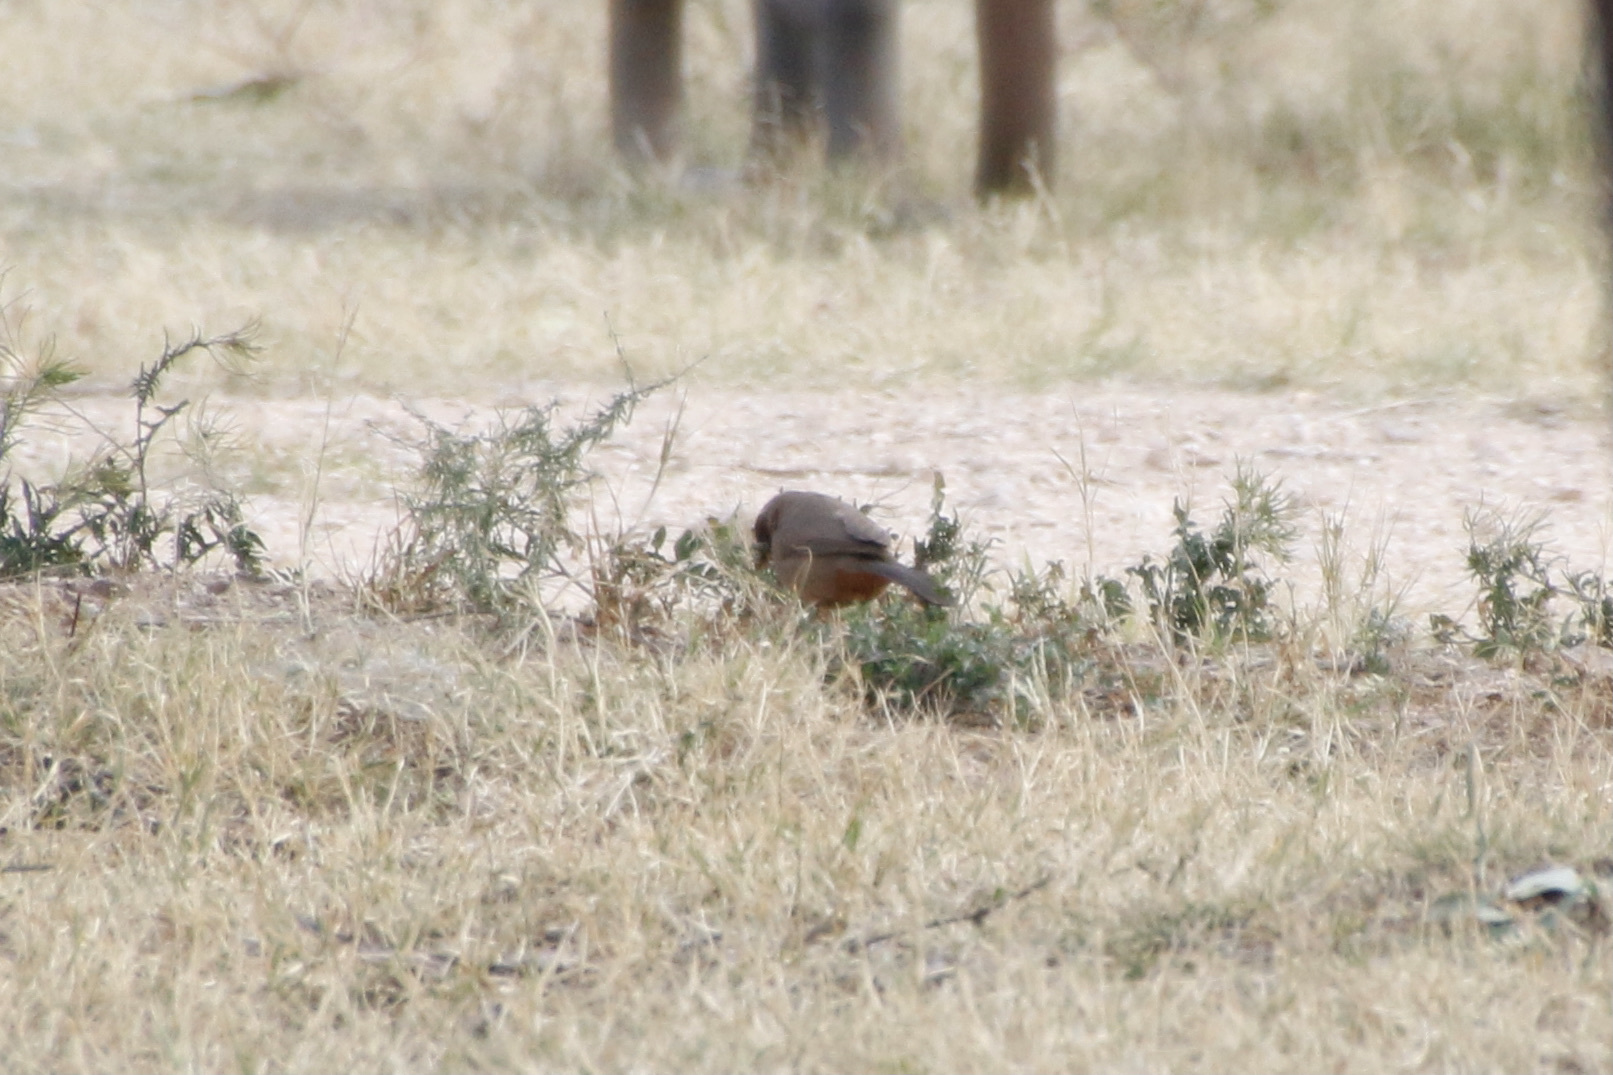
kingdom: Animalia
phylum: Chordata
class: Aves
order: Passeriformes
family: Passerellidae
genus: Melozone
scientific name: Melozone aberti
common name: Abert's towhee
